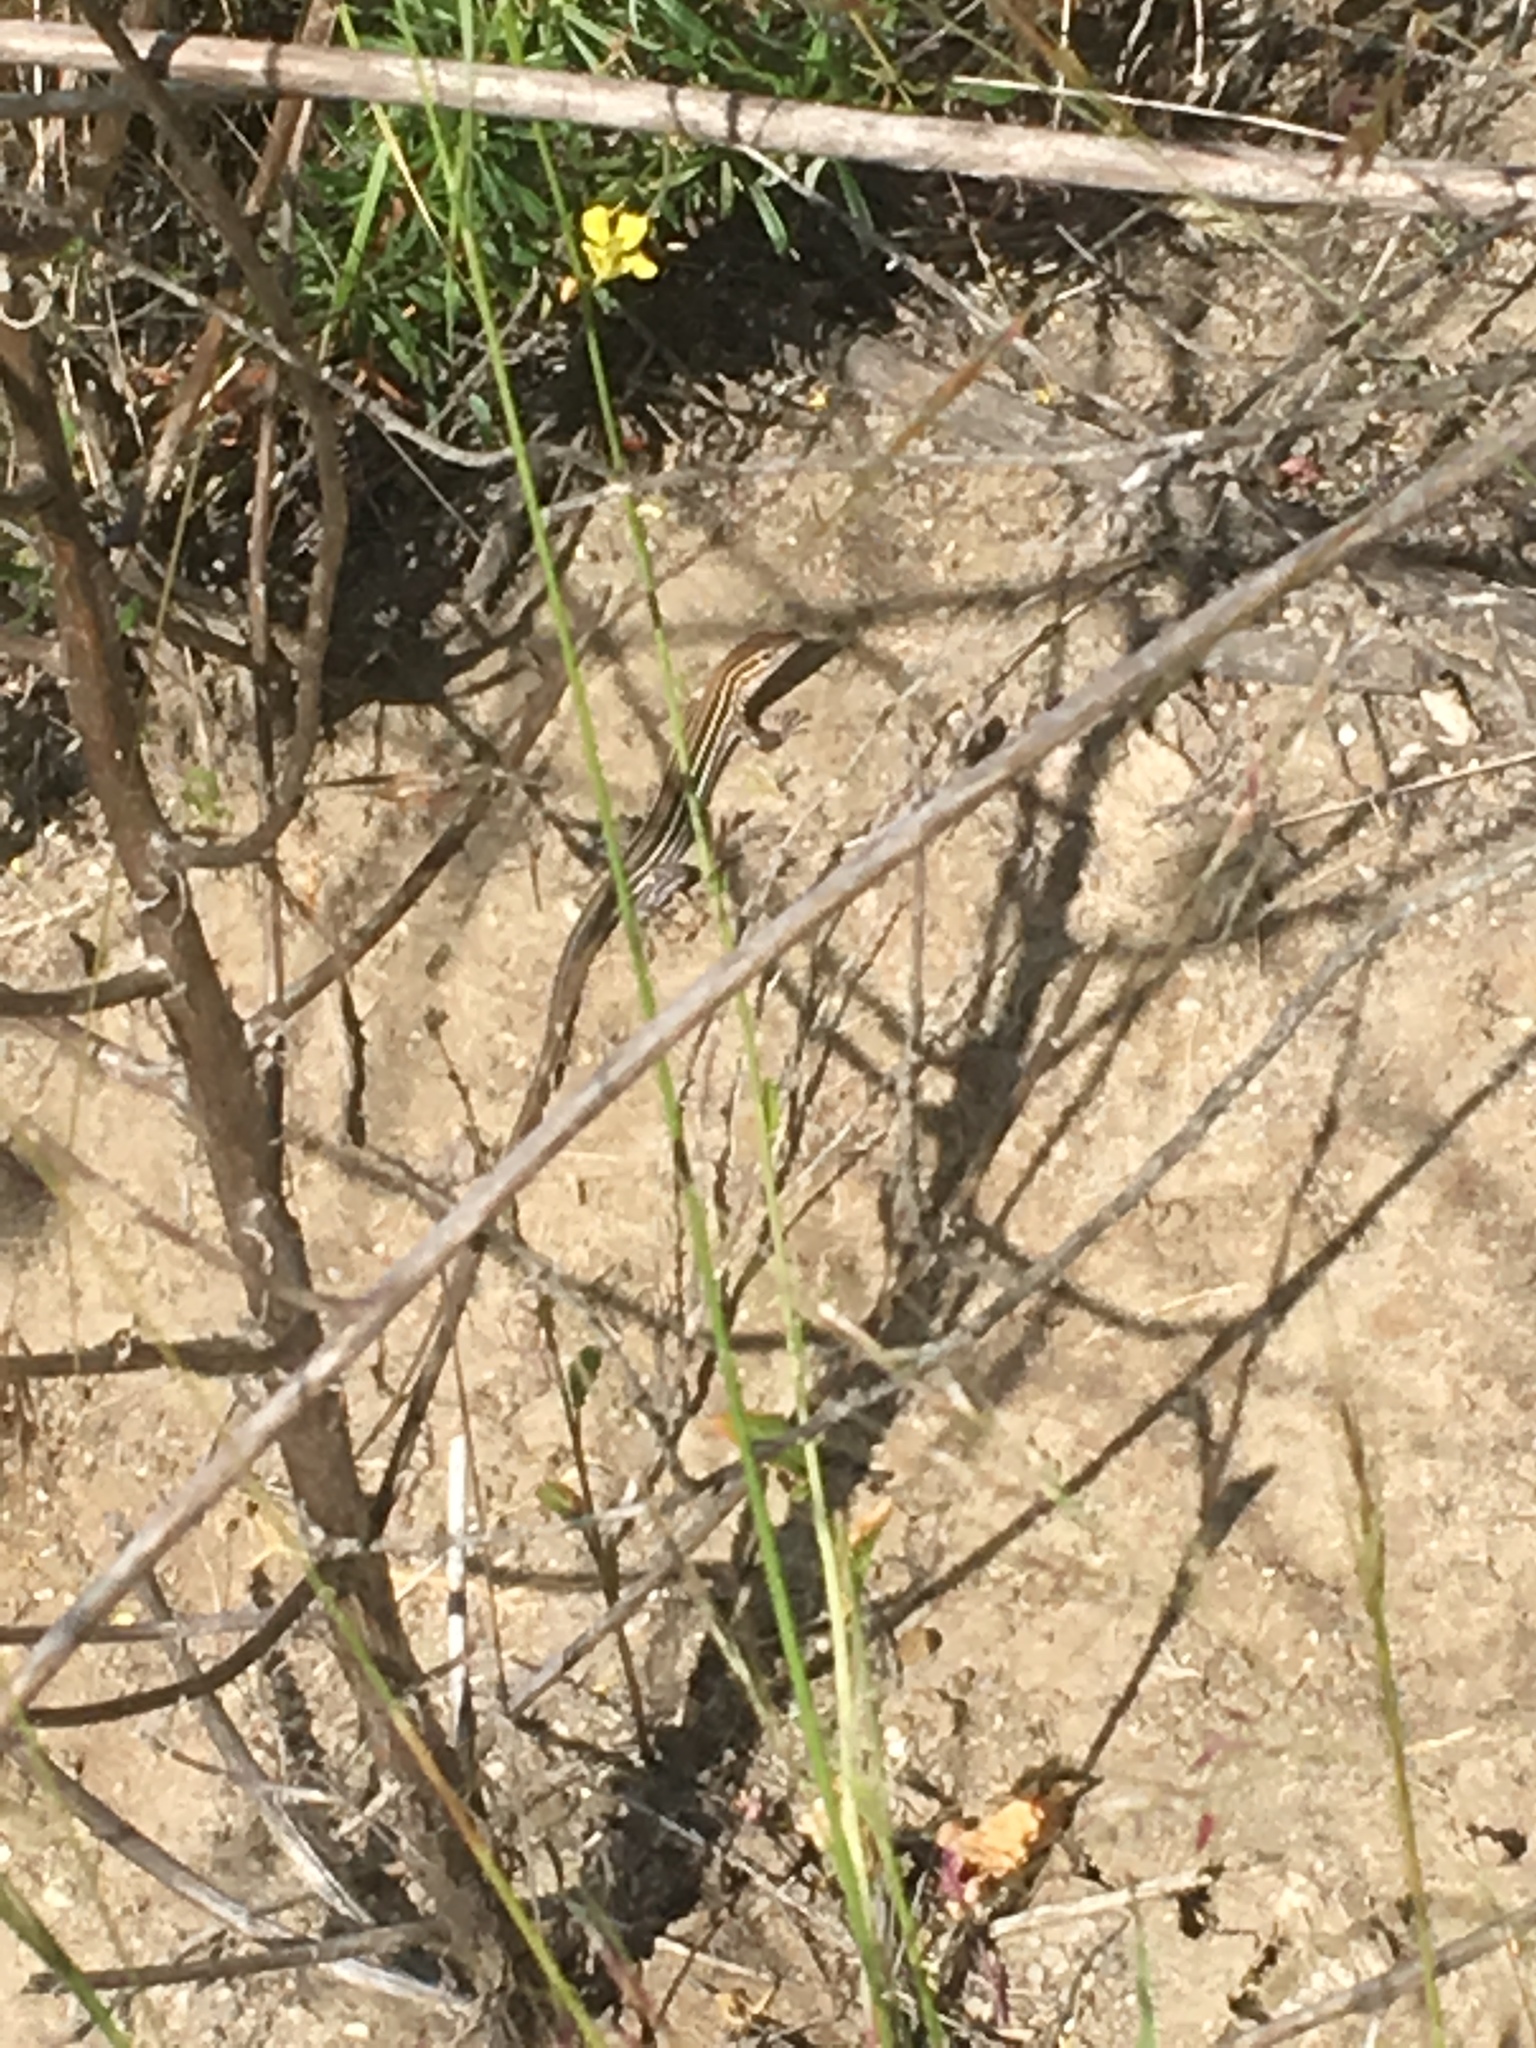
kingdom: Animalia
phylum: Chordata
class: Squamata
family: Teiidae
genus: Aspidoscelis
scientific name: Aspidoscelis hyperythrus
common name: Orange-throated race-runner
